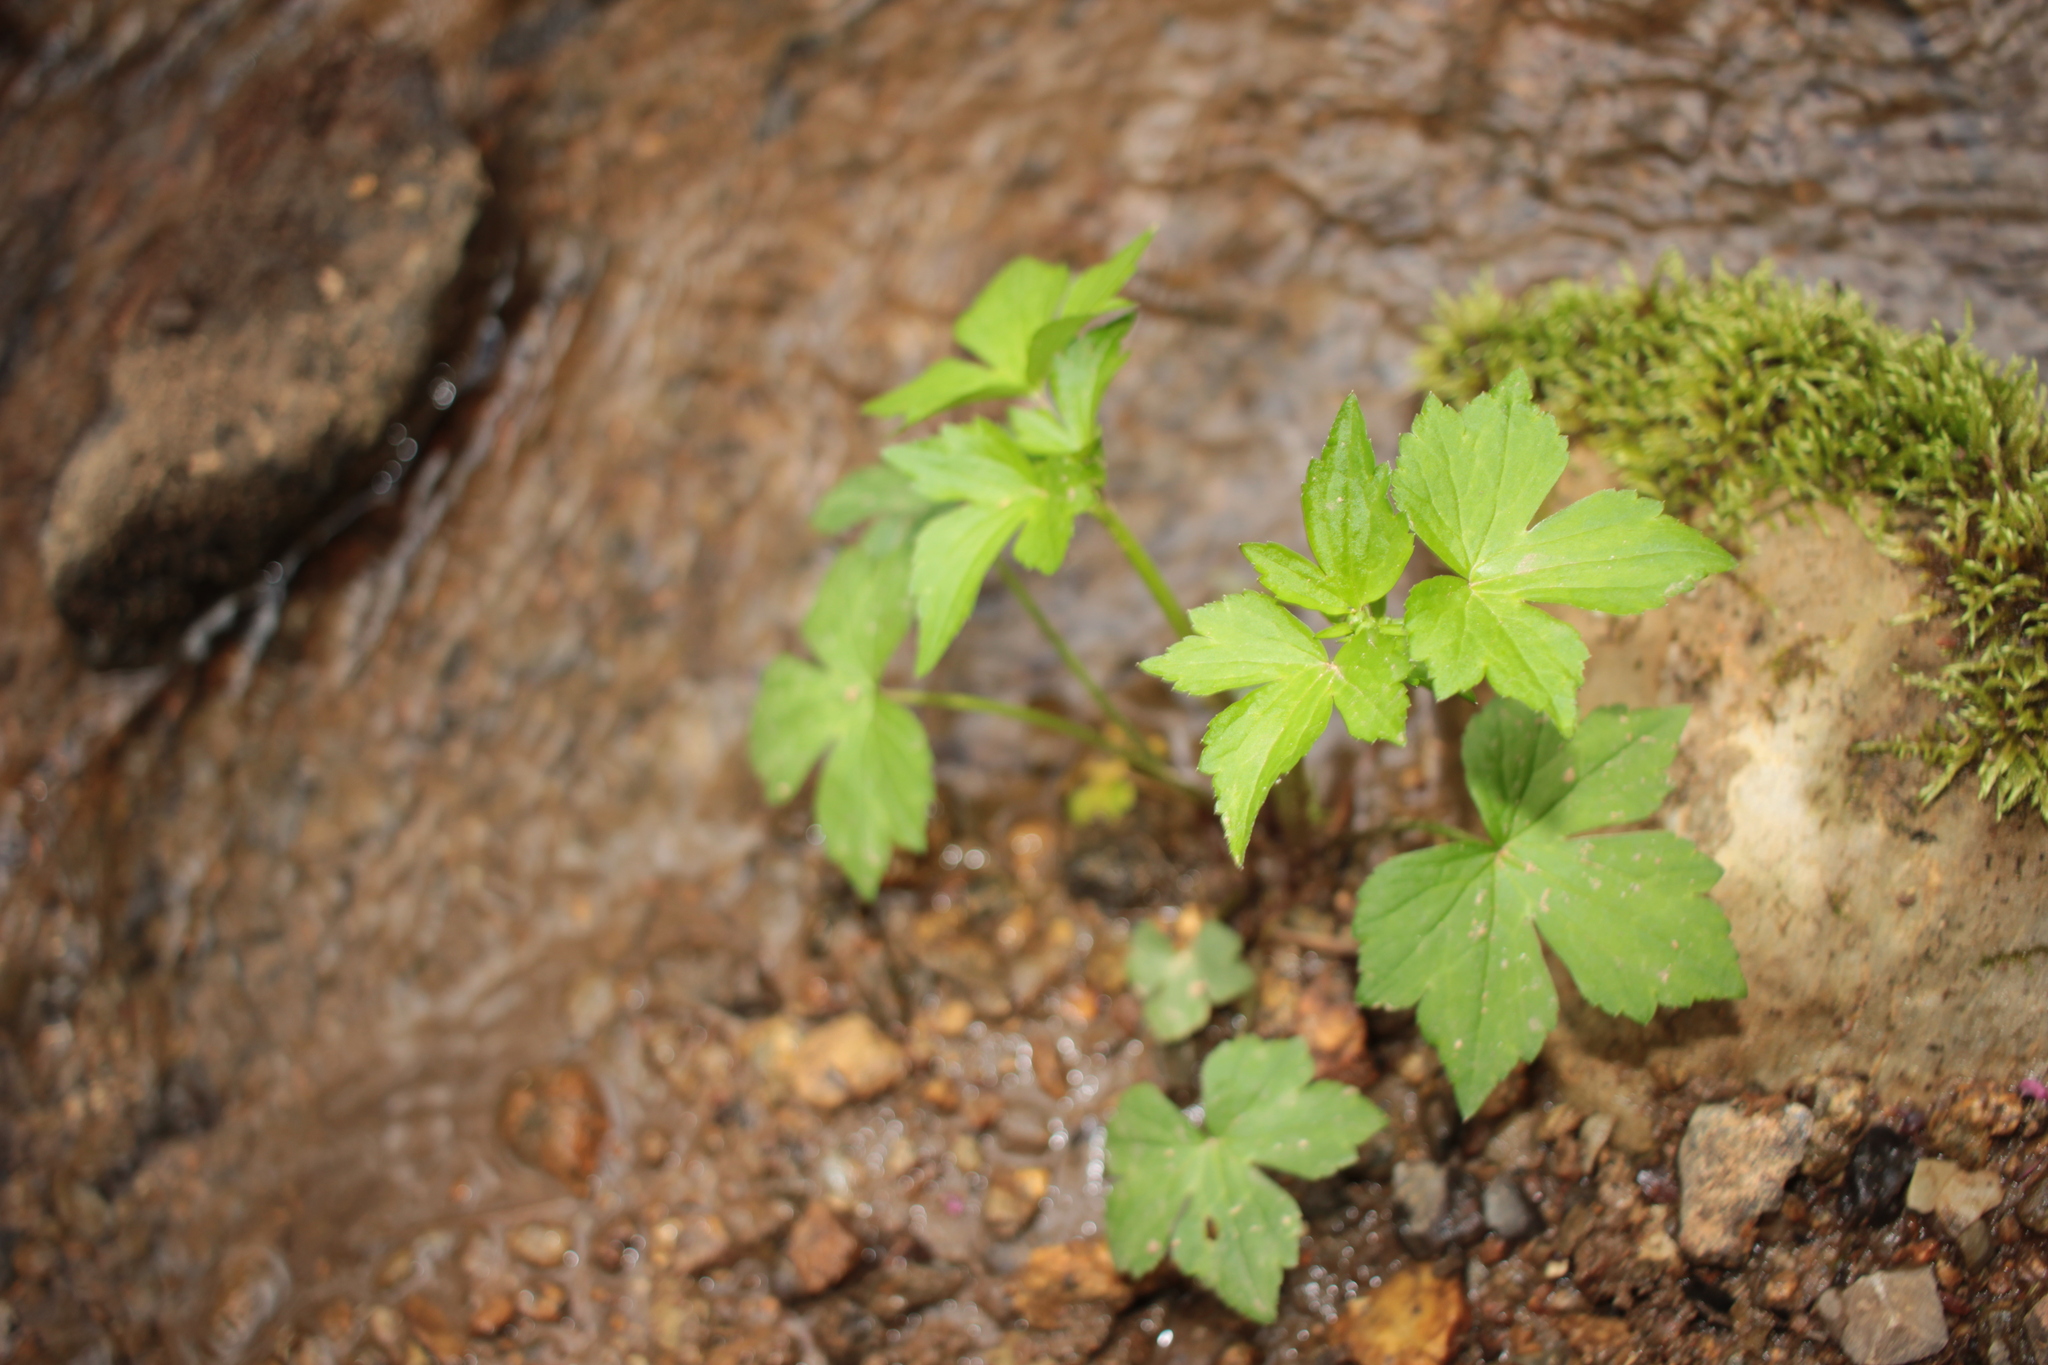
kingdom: Plantae
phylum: Tracheophyta
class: Magnoliopsida
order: Ranunculales
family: Ranunculaceae
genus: Ranunculus
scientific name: Ranunculus recurvatus
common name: Blisterwort
